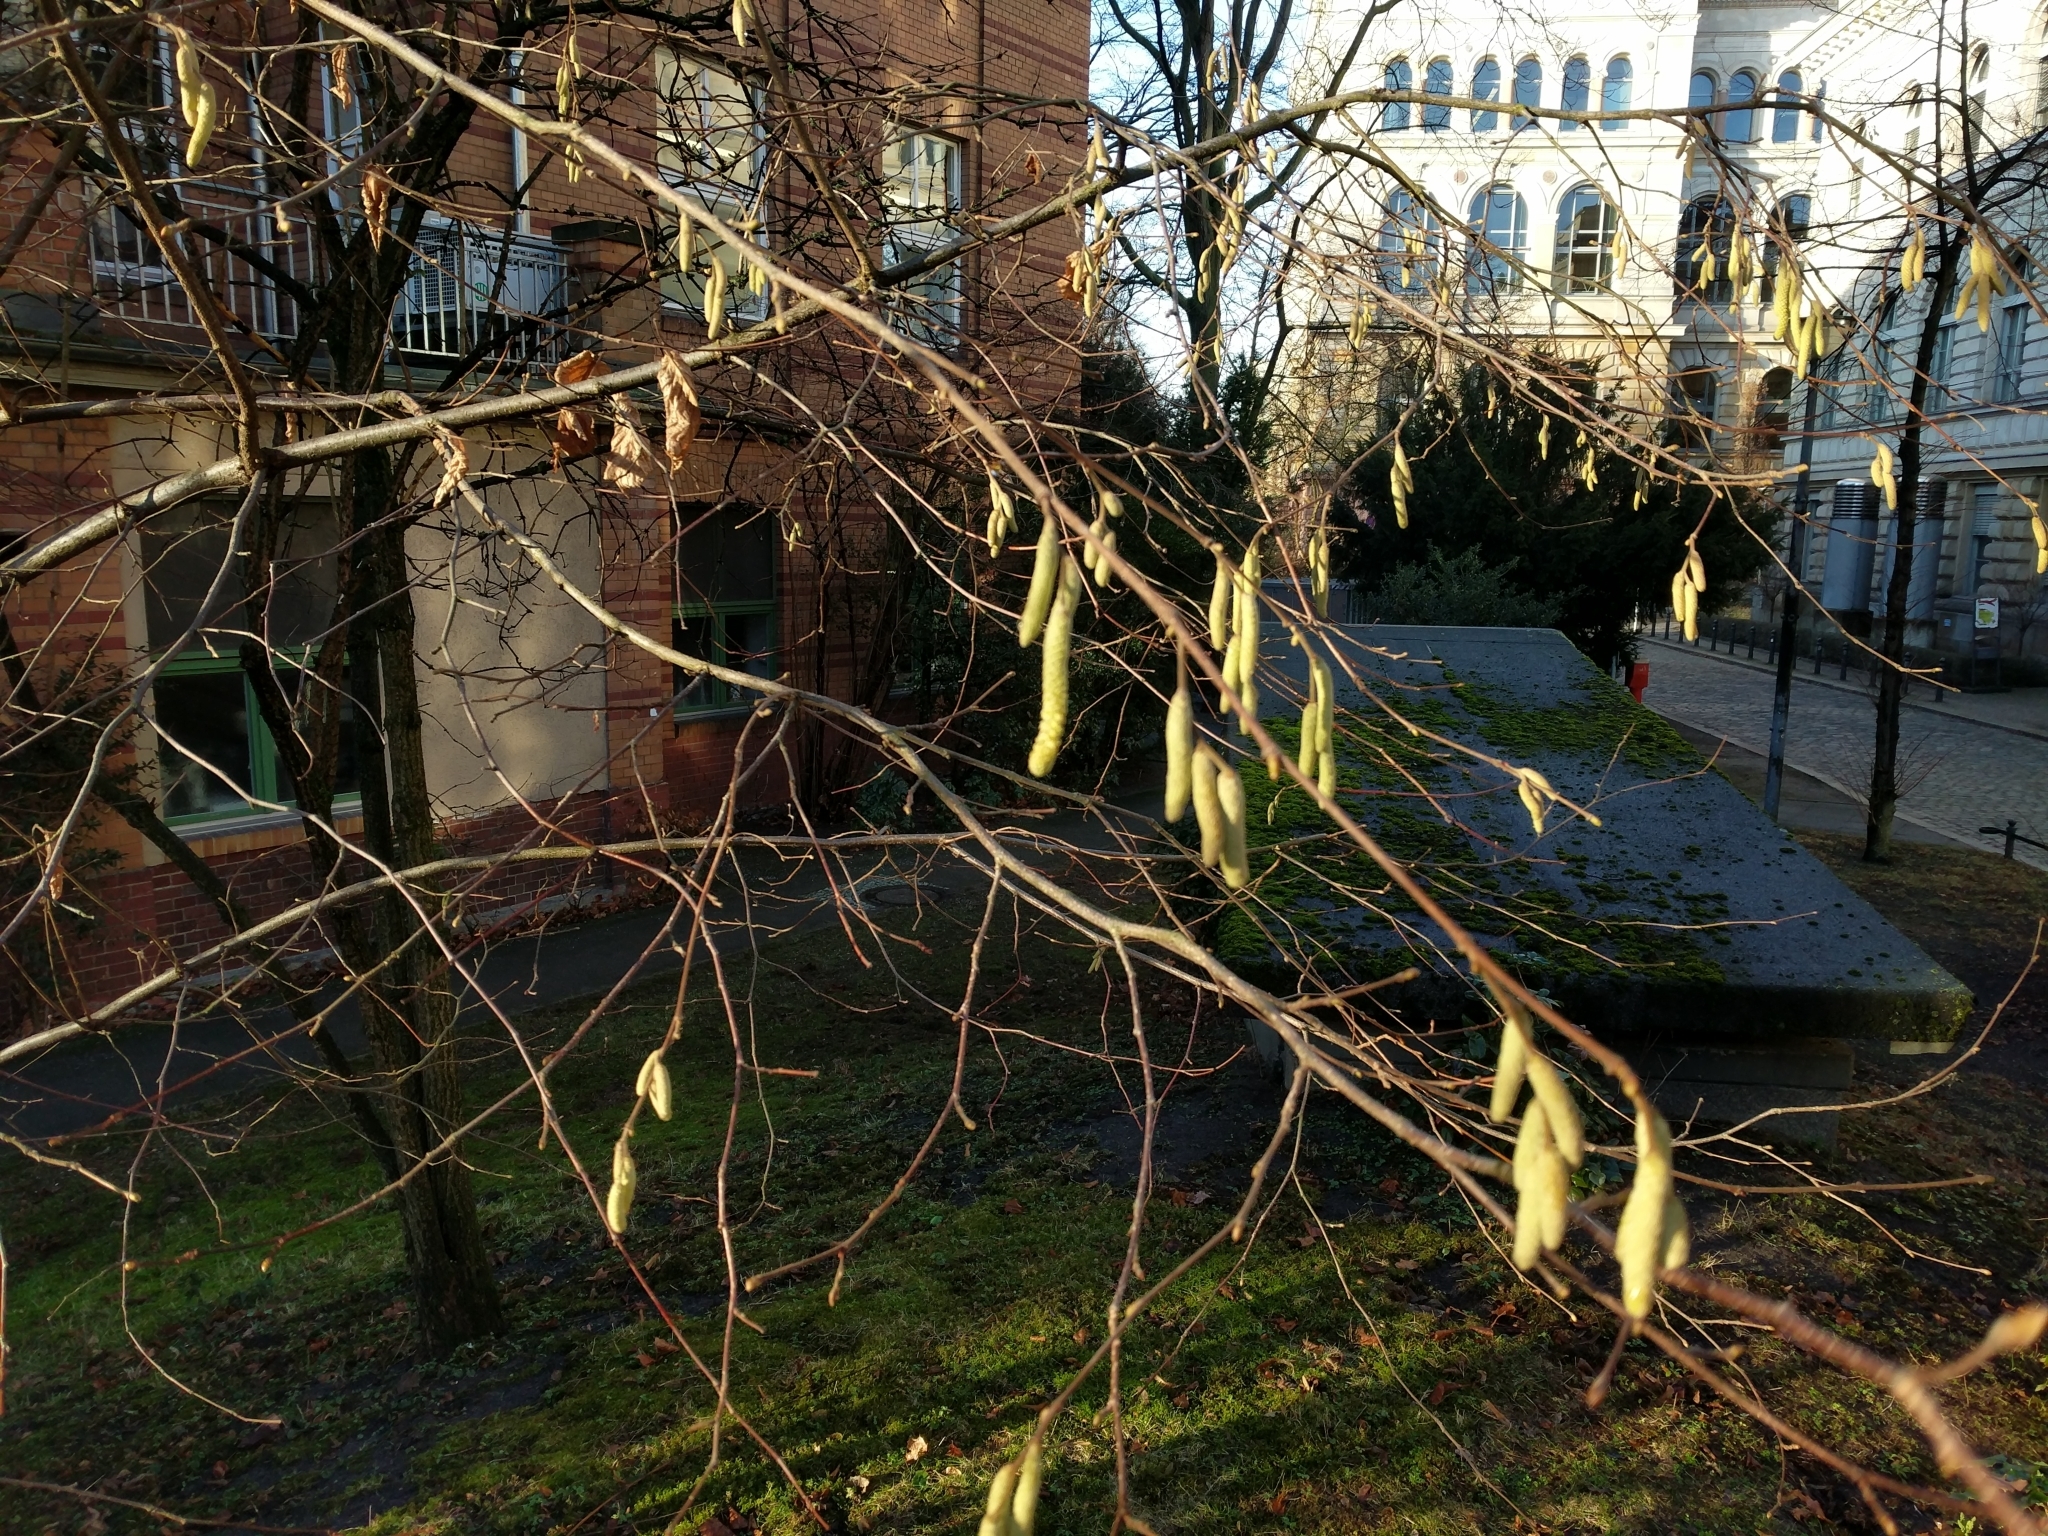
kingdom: Plantae
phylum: Tracheophyta
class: Magnoliopsida
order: Fagales
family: Betulaceae
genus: Corylus
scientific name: Corylus avellana
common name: European hazel
